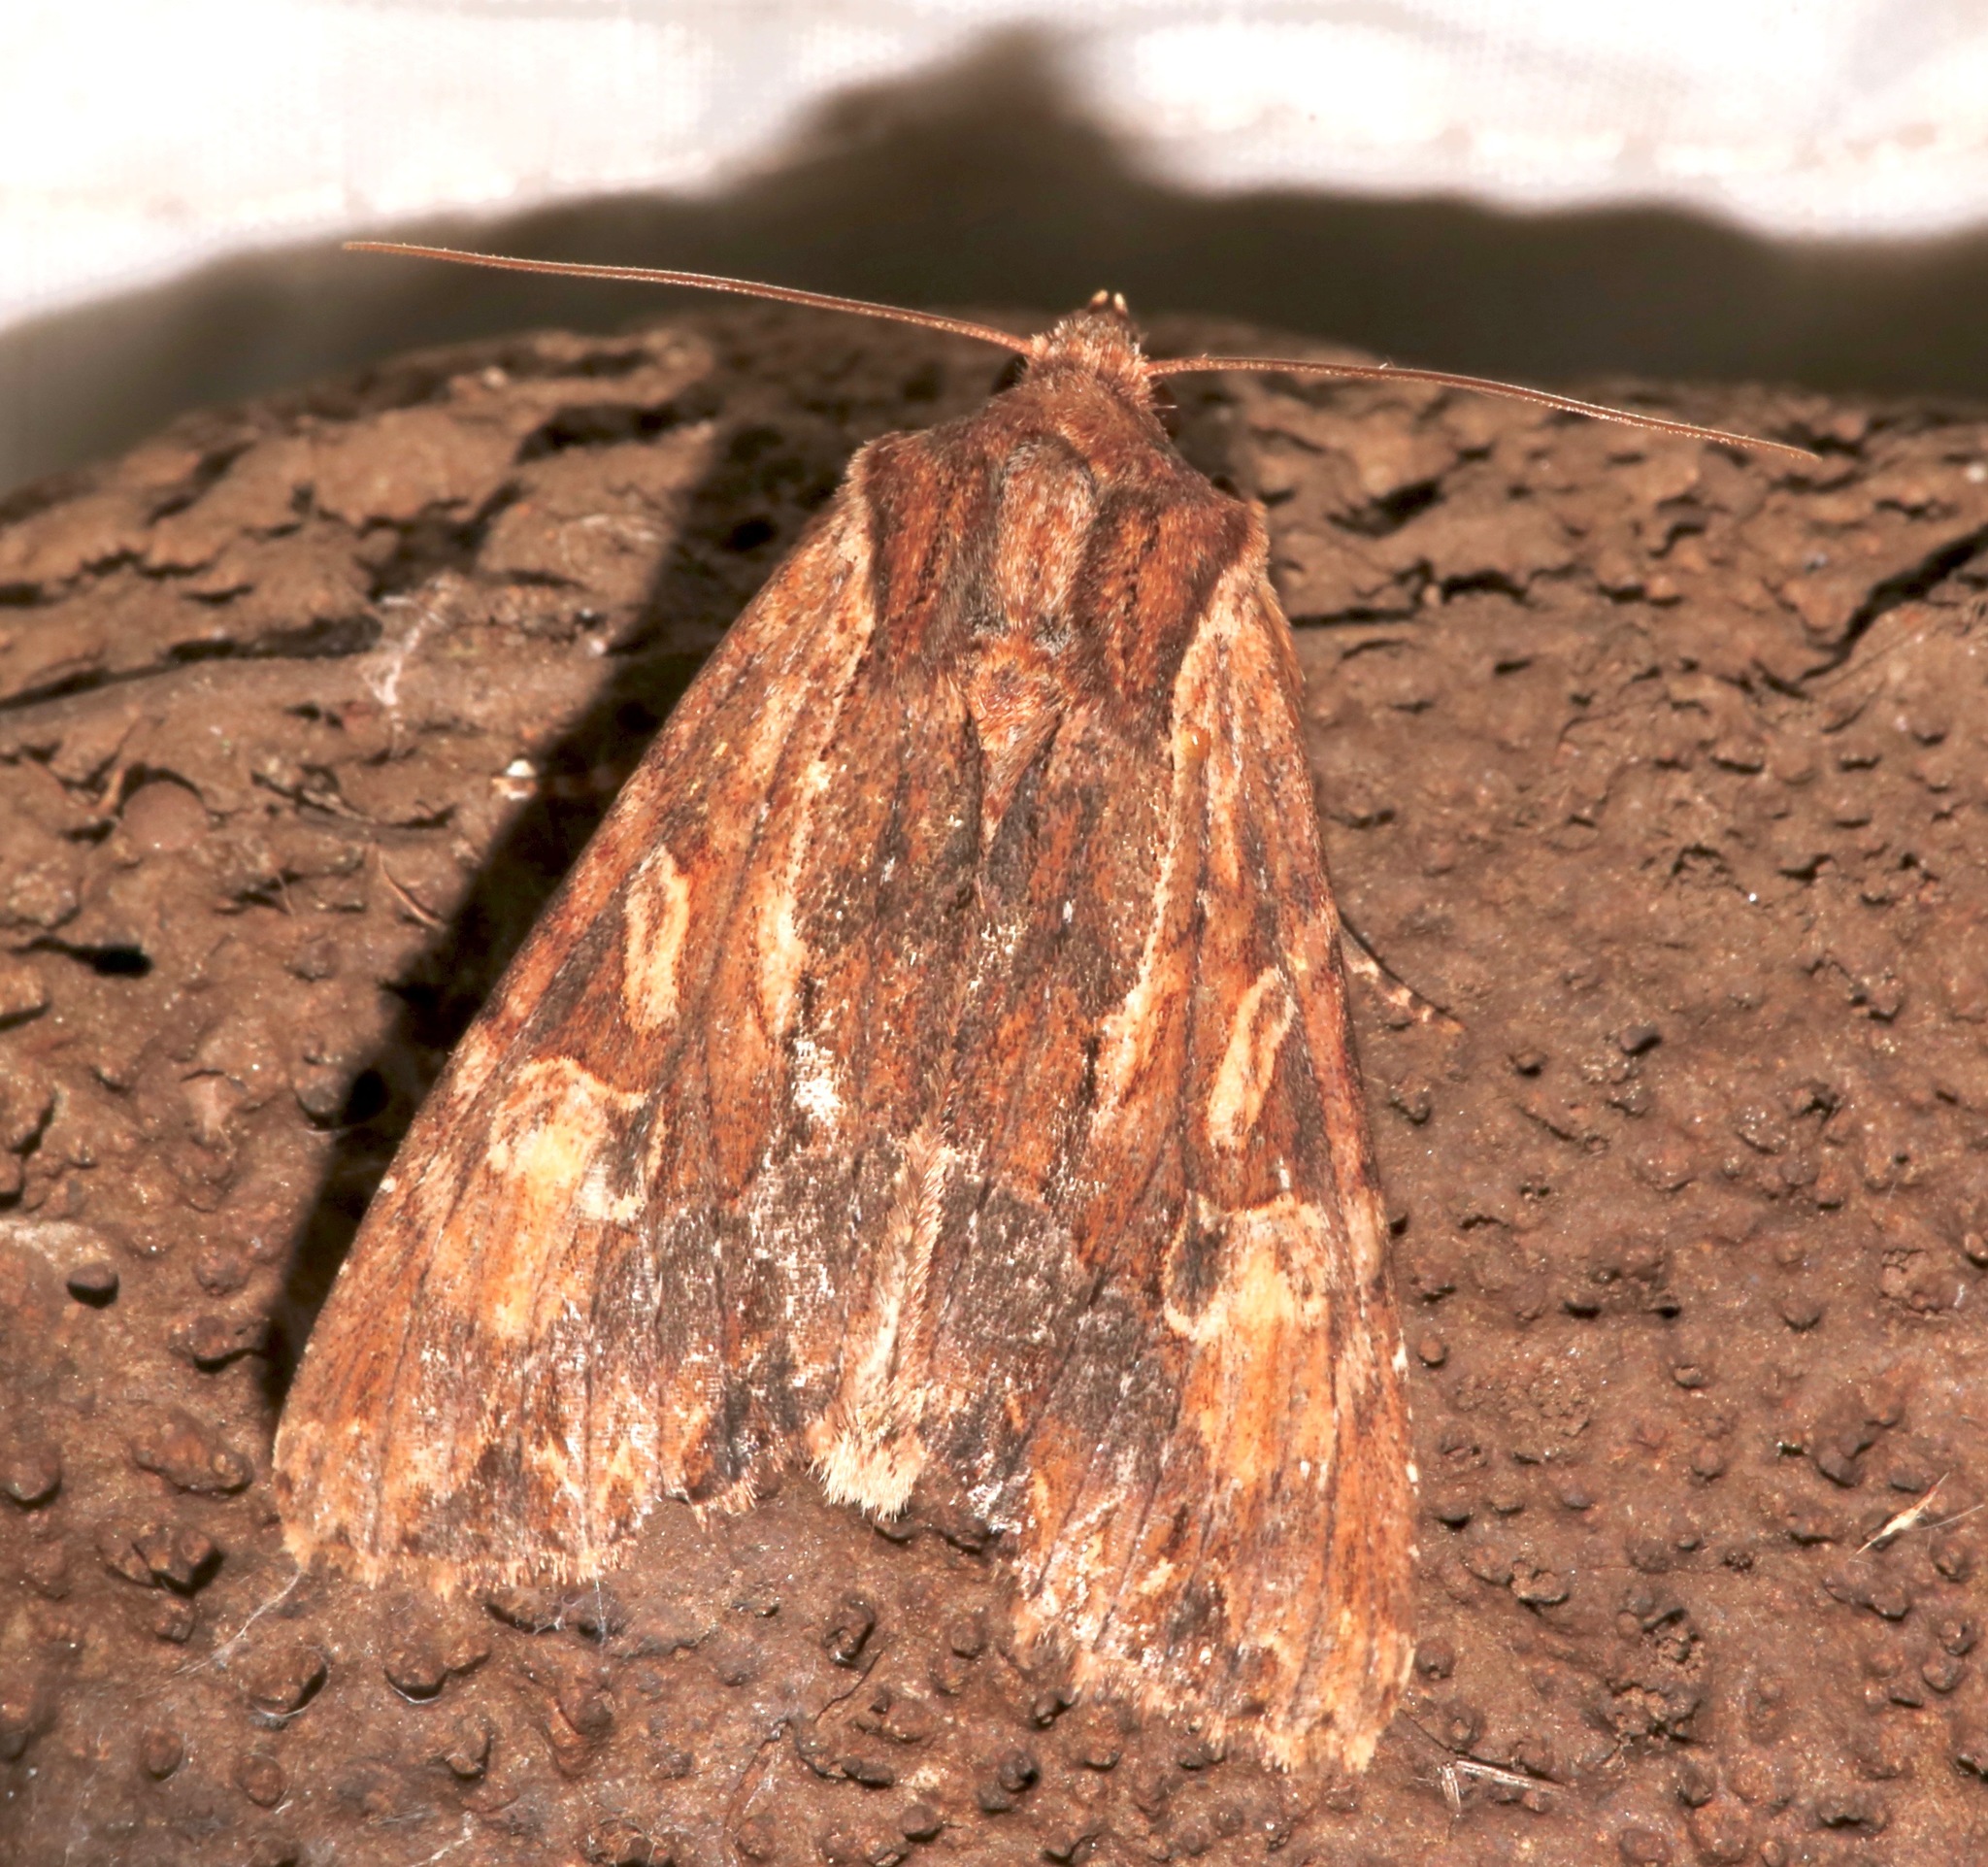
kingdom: Animalia
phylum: Arthropoda
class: Insecta
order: Lepidoptera
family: Noctuidae
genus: Apamea
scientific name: Apamea atrosuffusa
